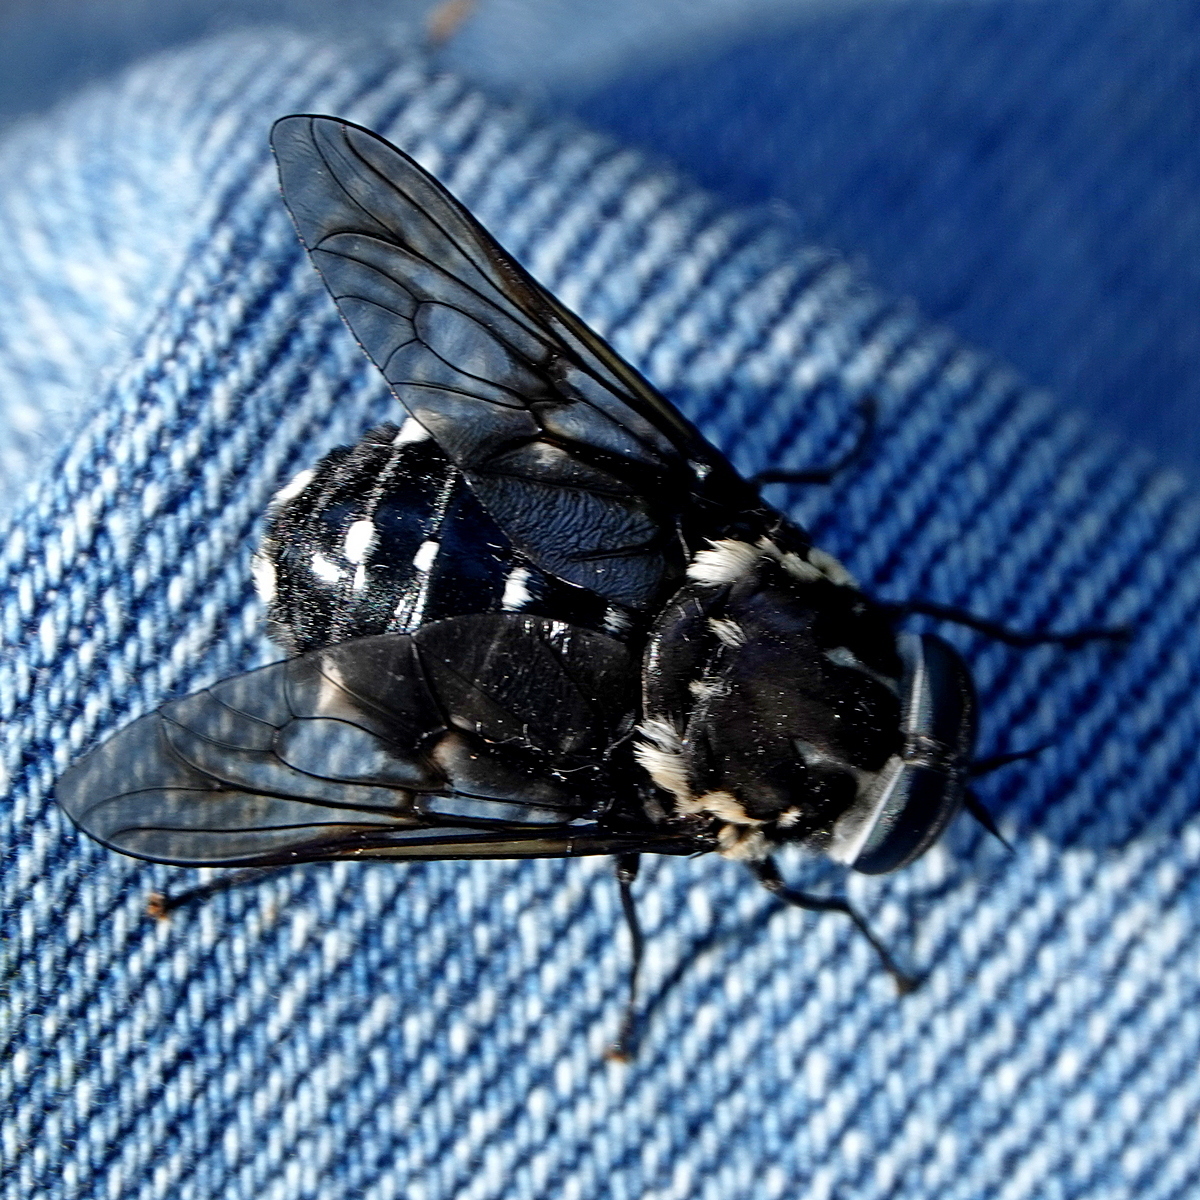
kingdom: Animalia
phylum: Arthropoda
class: Insecta
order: Diptera
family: Tabanidae
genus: Triclista
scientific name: Triclista guttata
